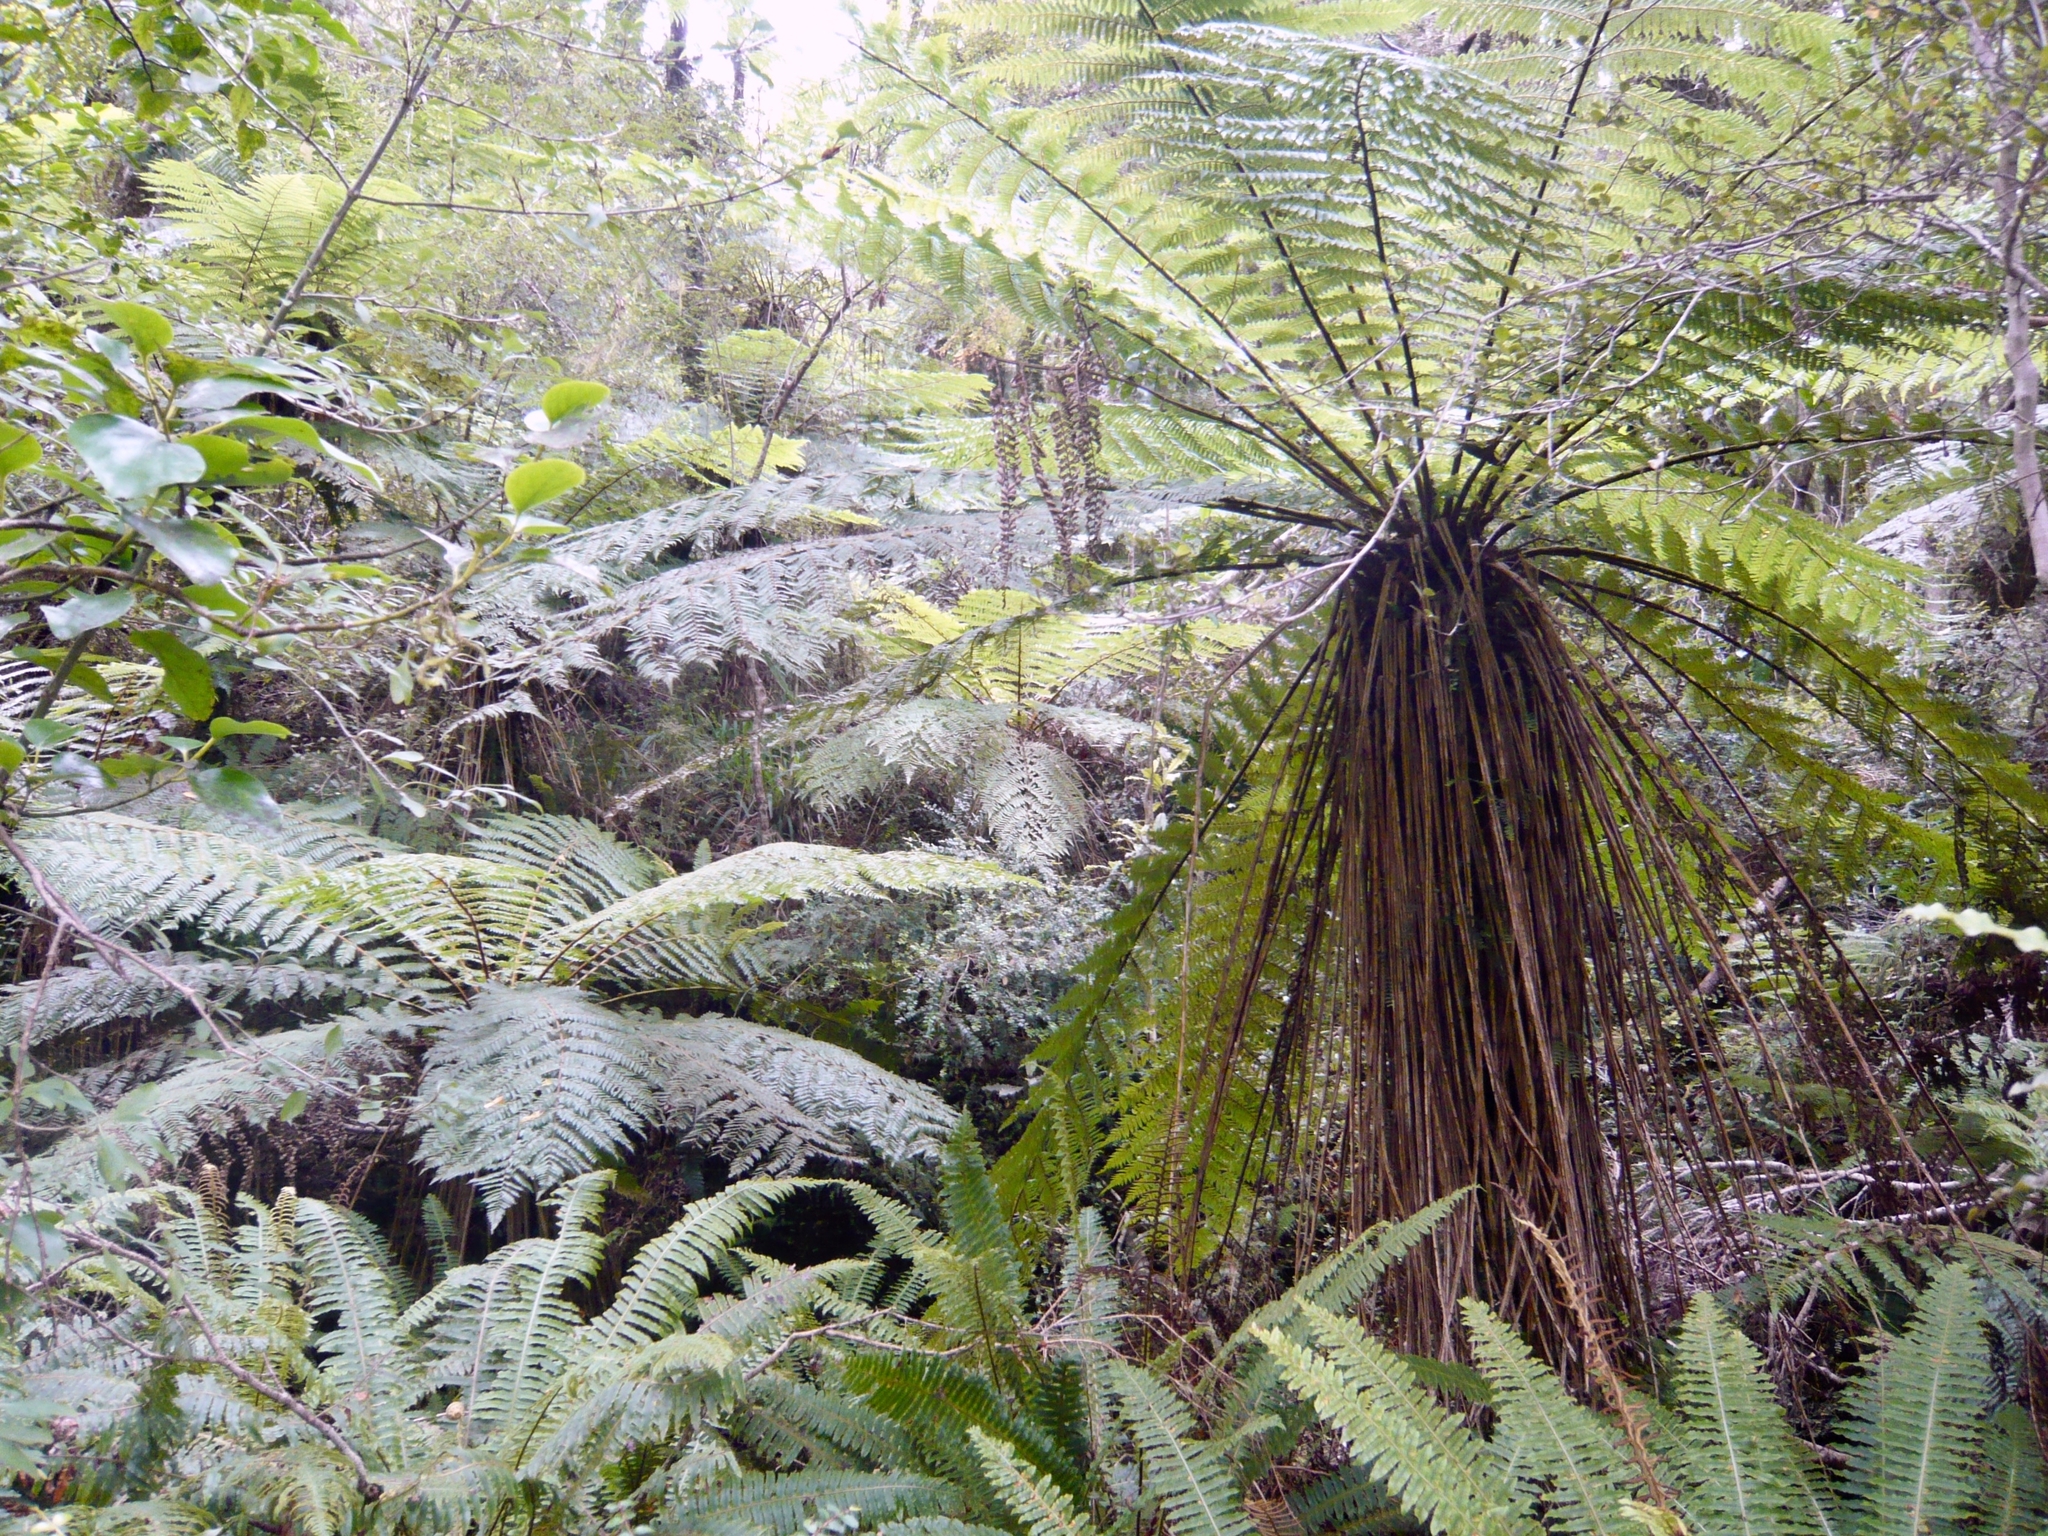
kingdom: Plantae
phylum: Tracheophyta
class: Polypodiopsida
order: Cyatheales
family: Cyatheaceae
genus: Alsophila
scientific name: Alsophila smithii
